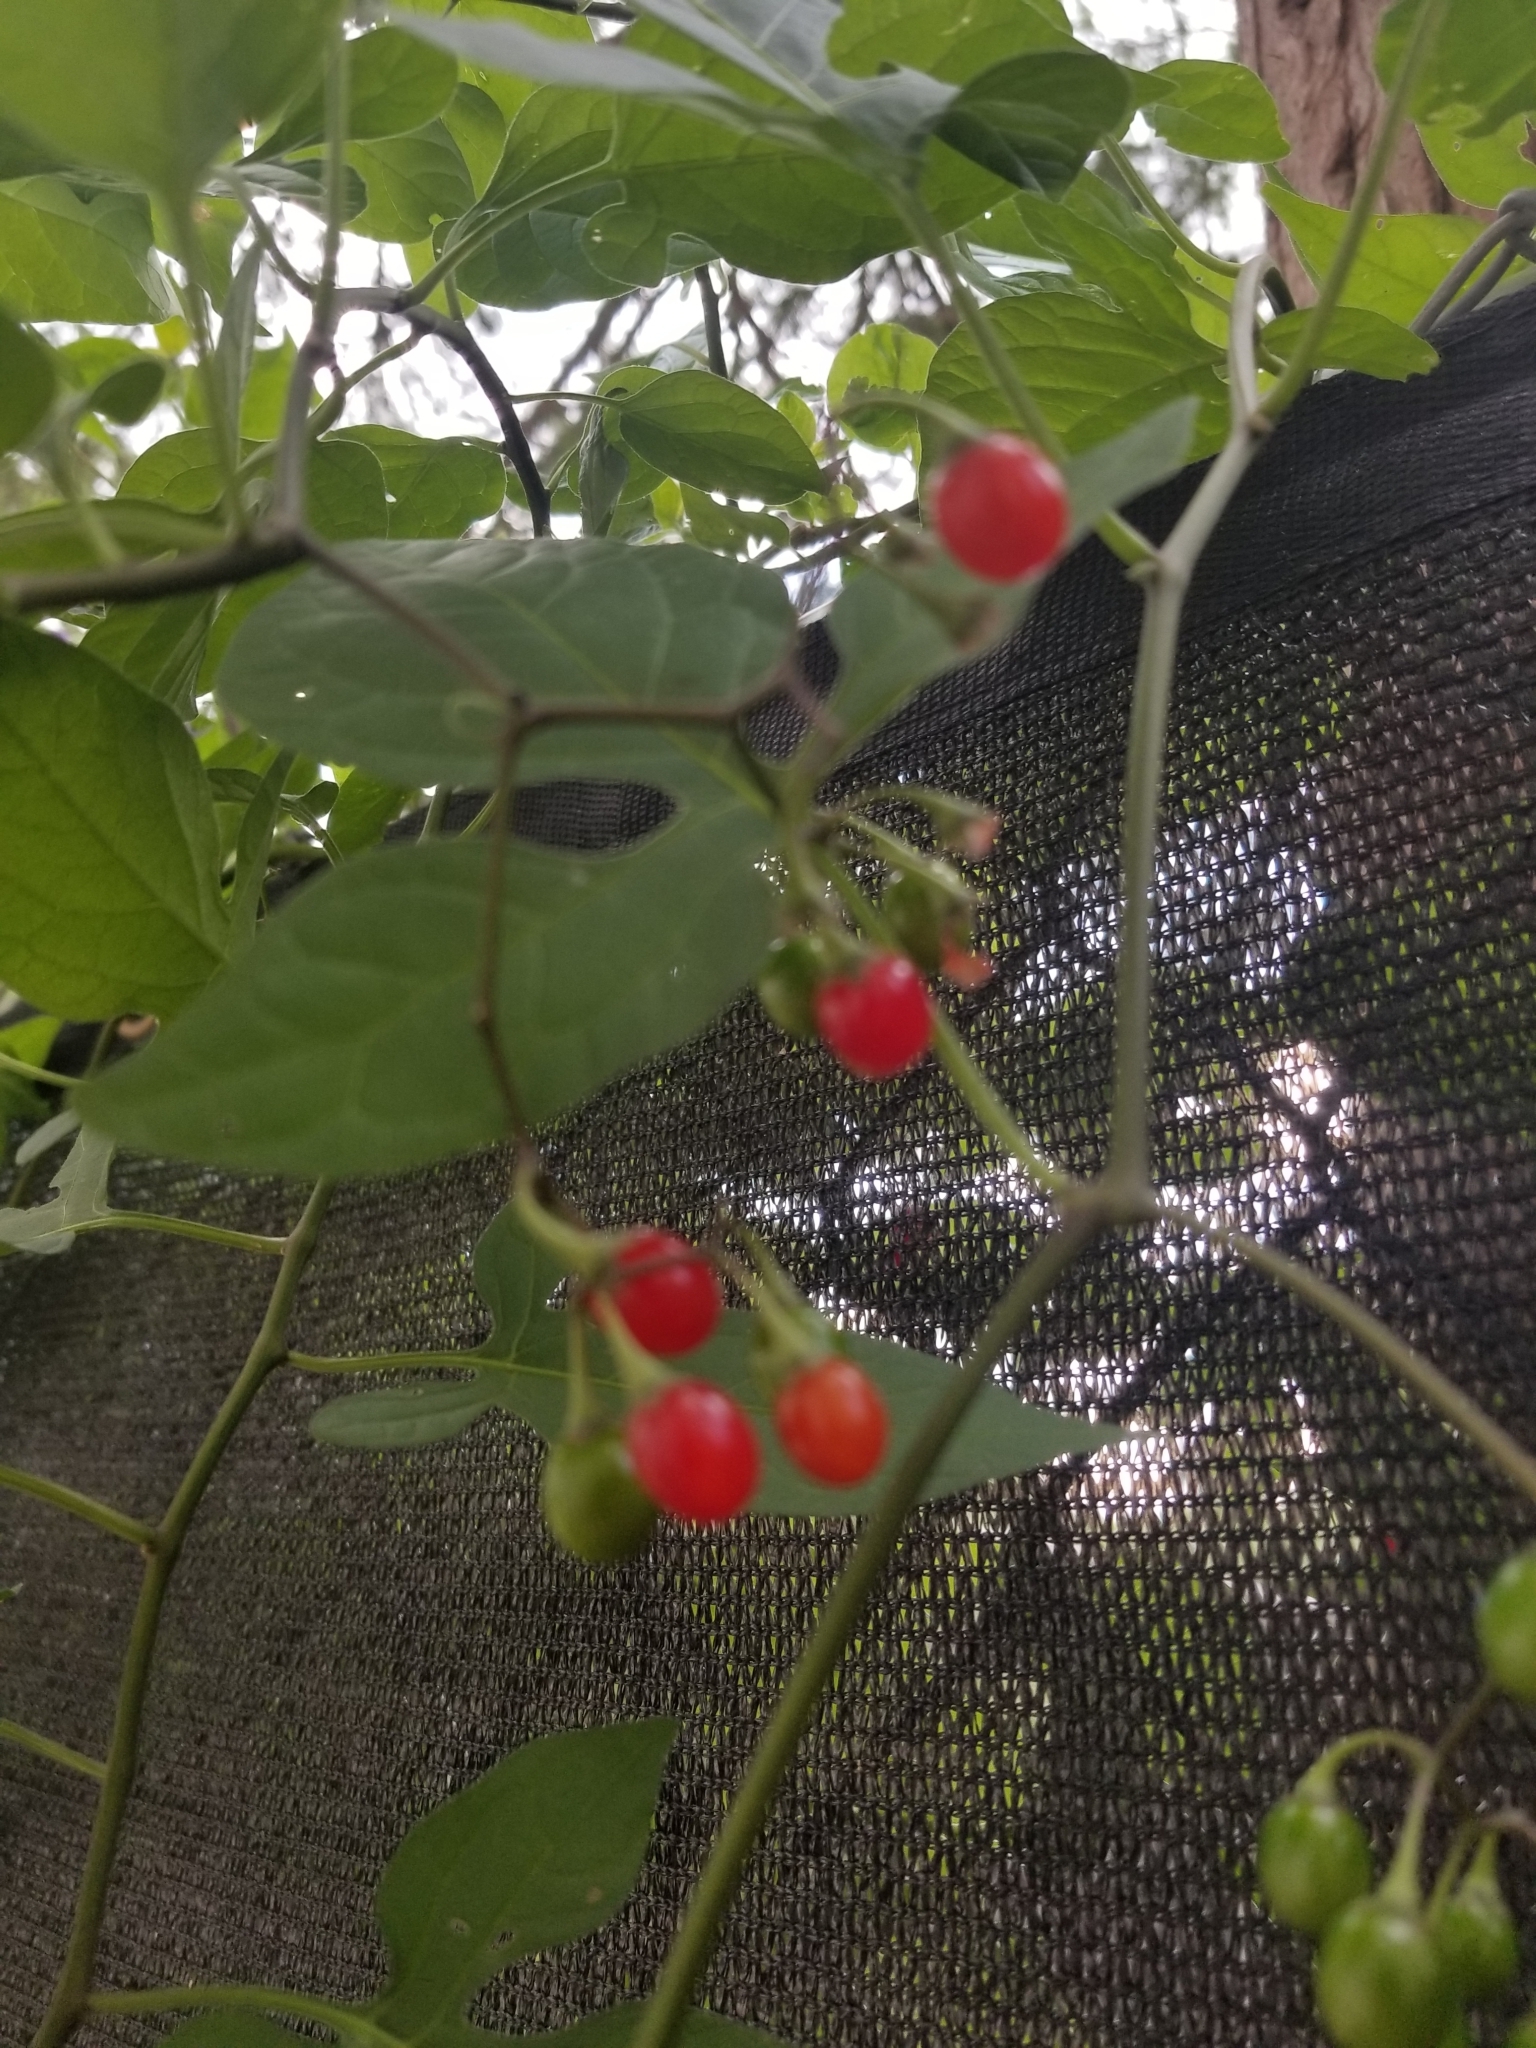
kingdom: Plantae
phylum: Tracheophyta
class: Magnoliopsida
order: Solanales
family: Solanaceae
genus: Solanum
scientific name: Solanum dulcamara
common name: Climbing nightshade
